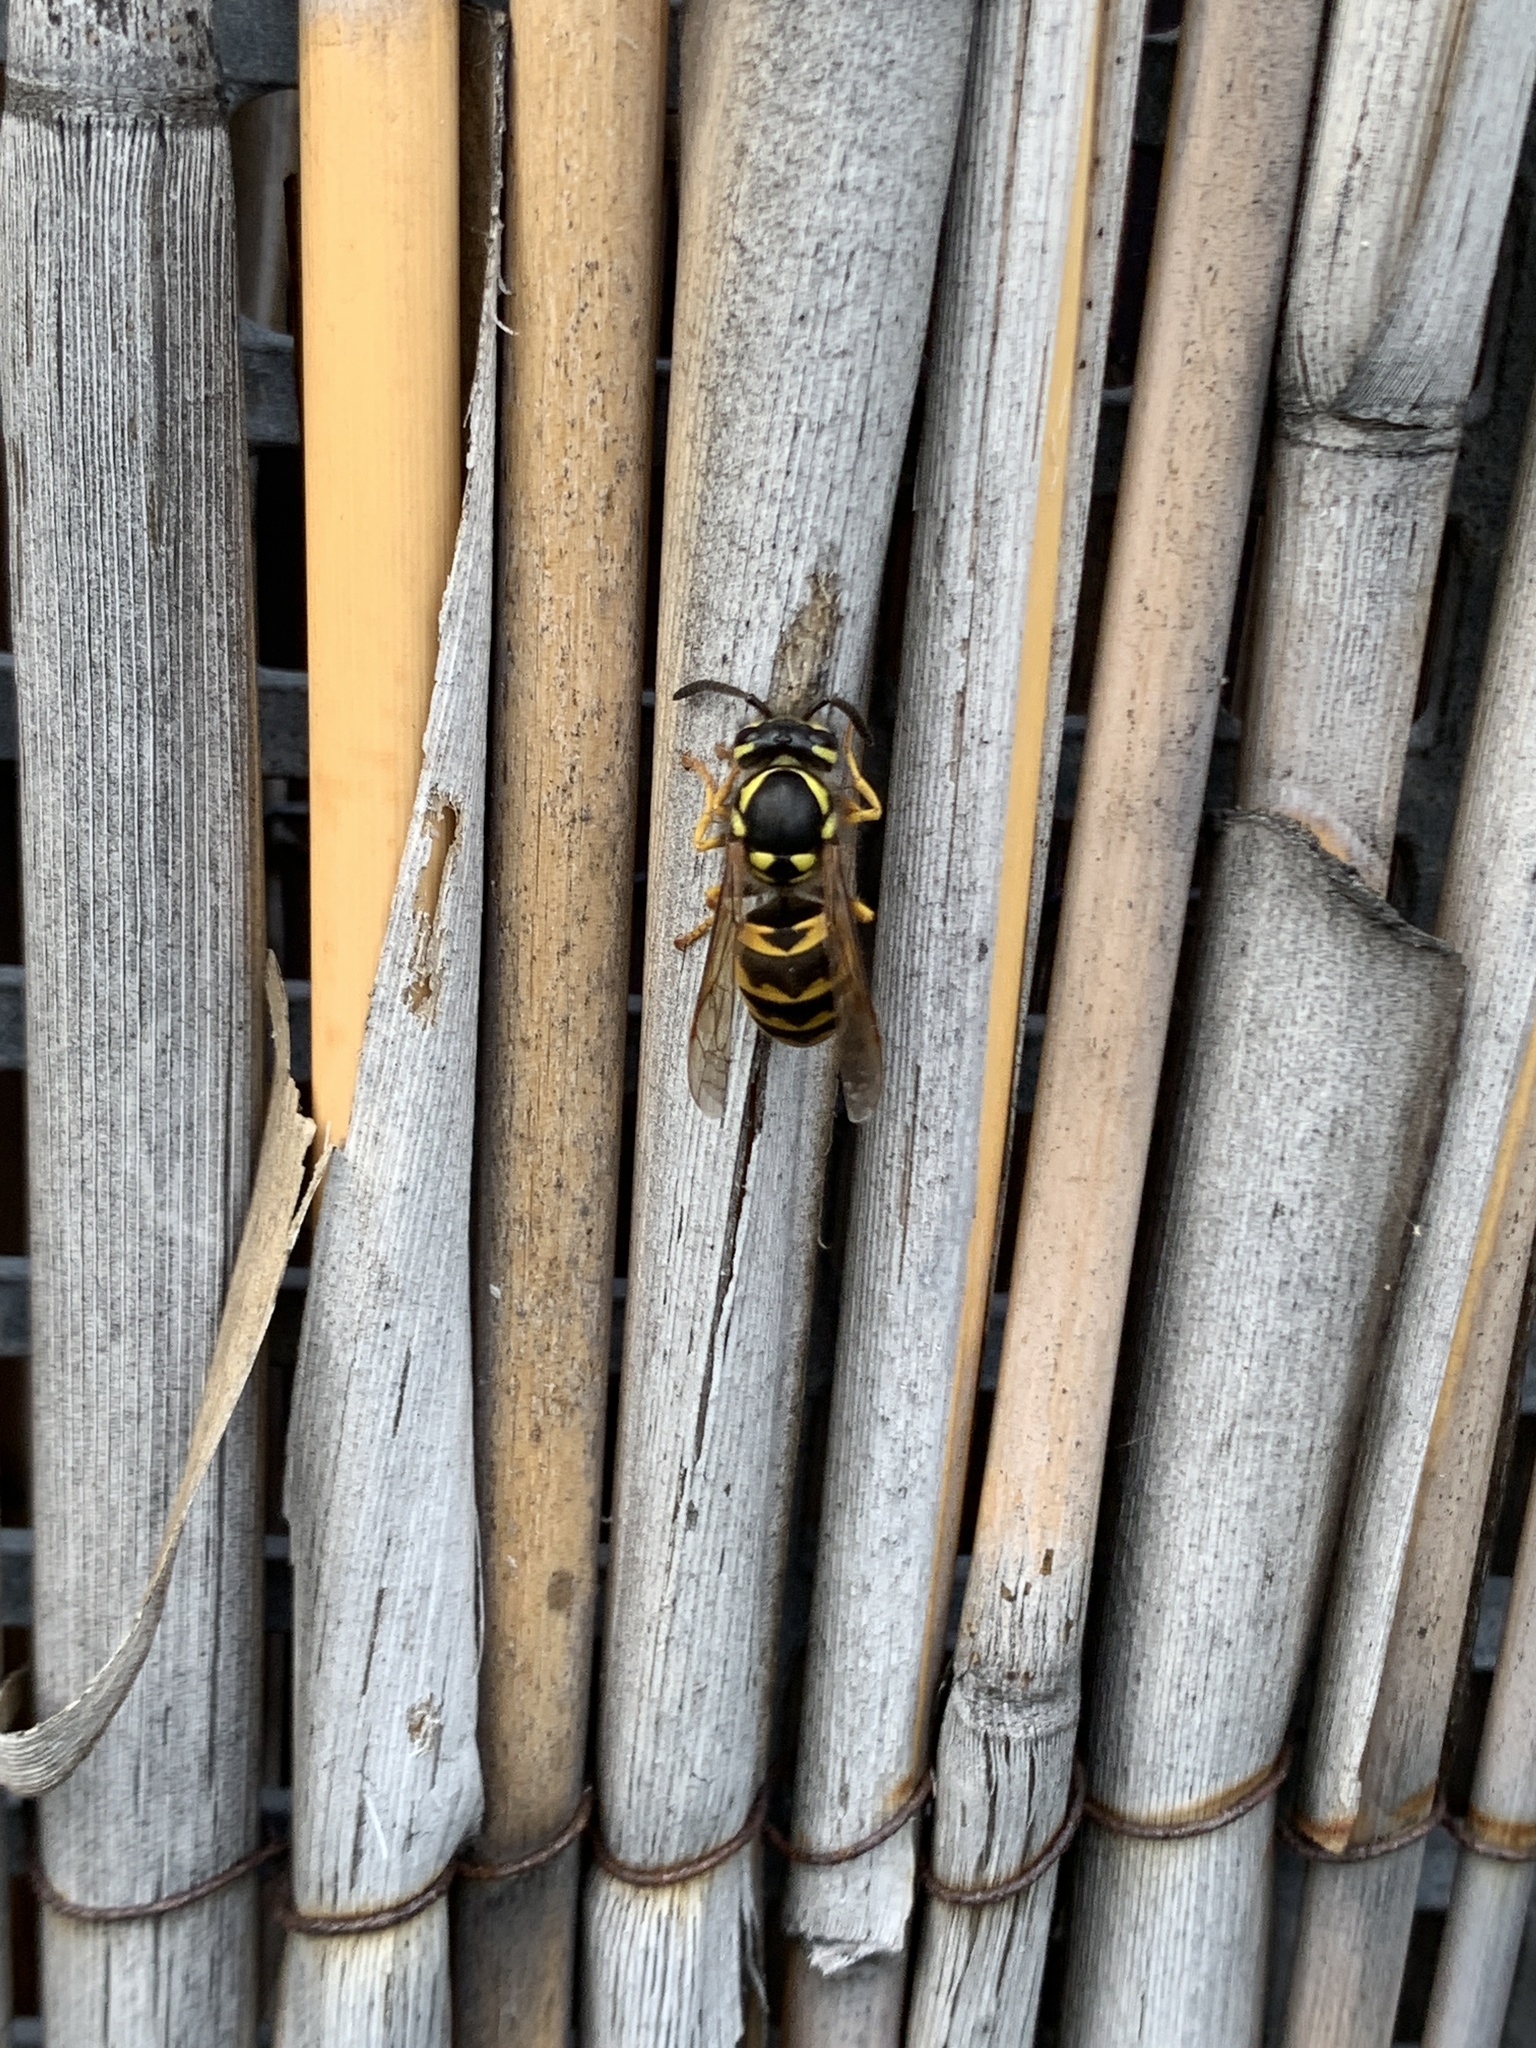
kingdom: Animalia
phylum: Arthropoda
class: Insecta
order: Hymenoptera
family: Vespidae
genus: Vespula
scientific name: Vespula germanica
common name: German wasp
